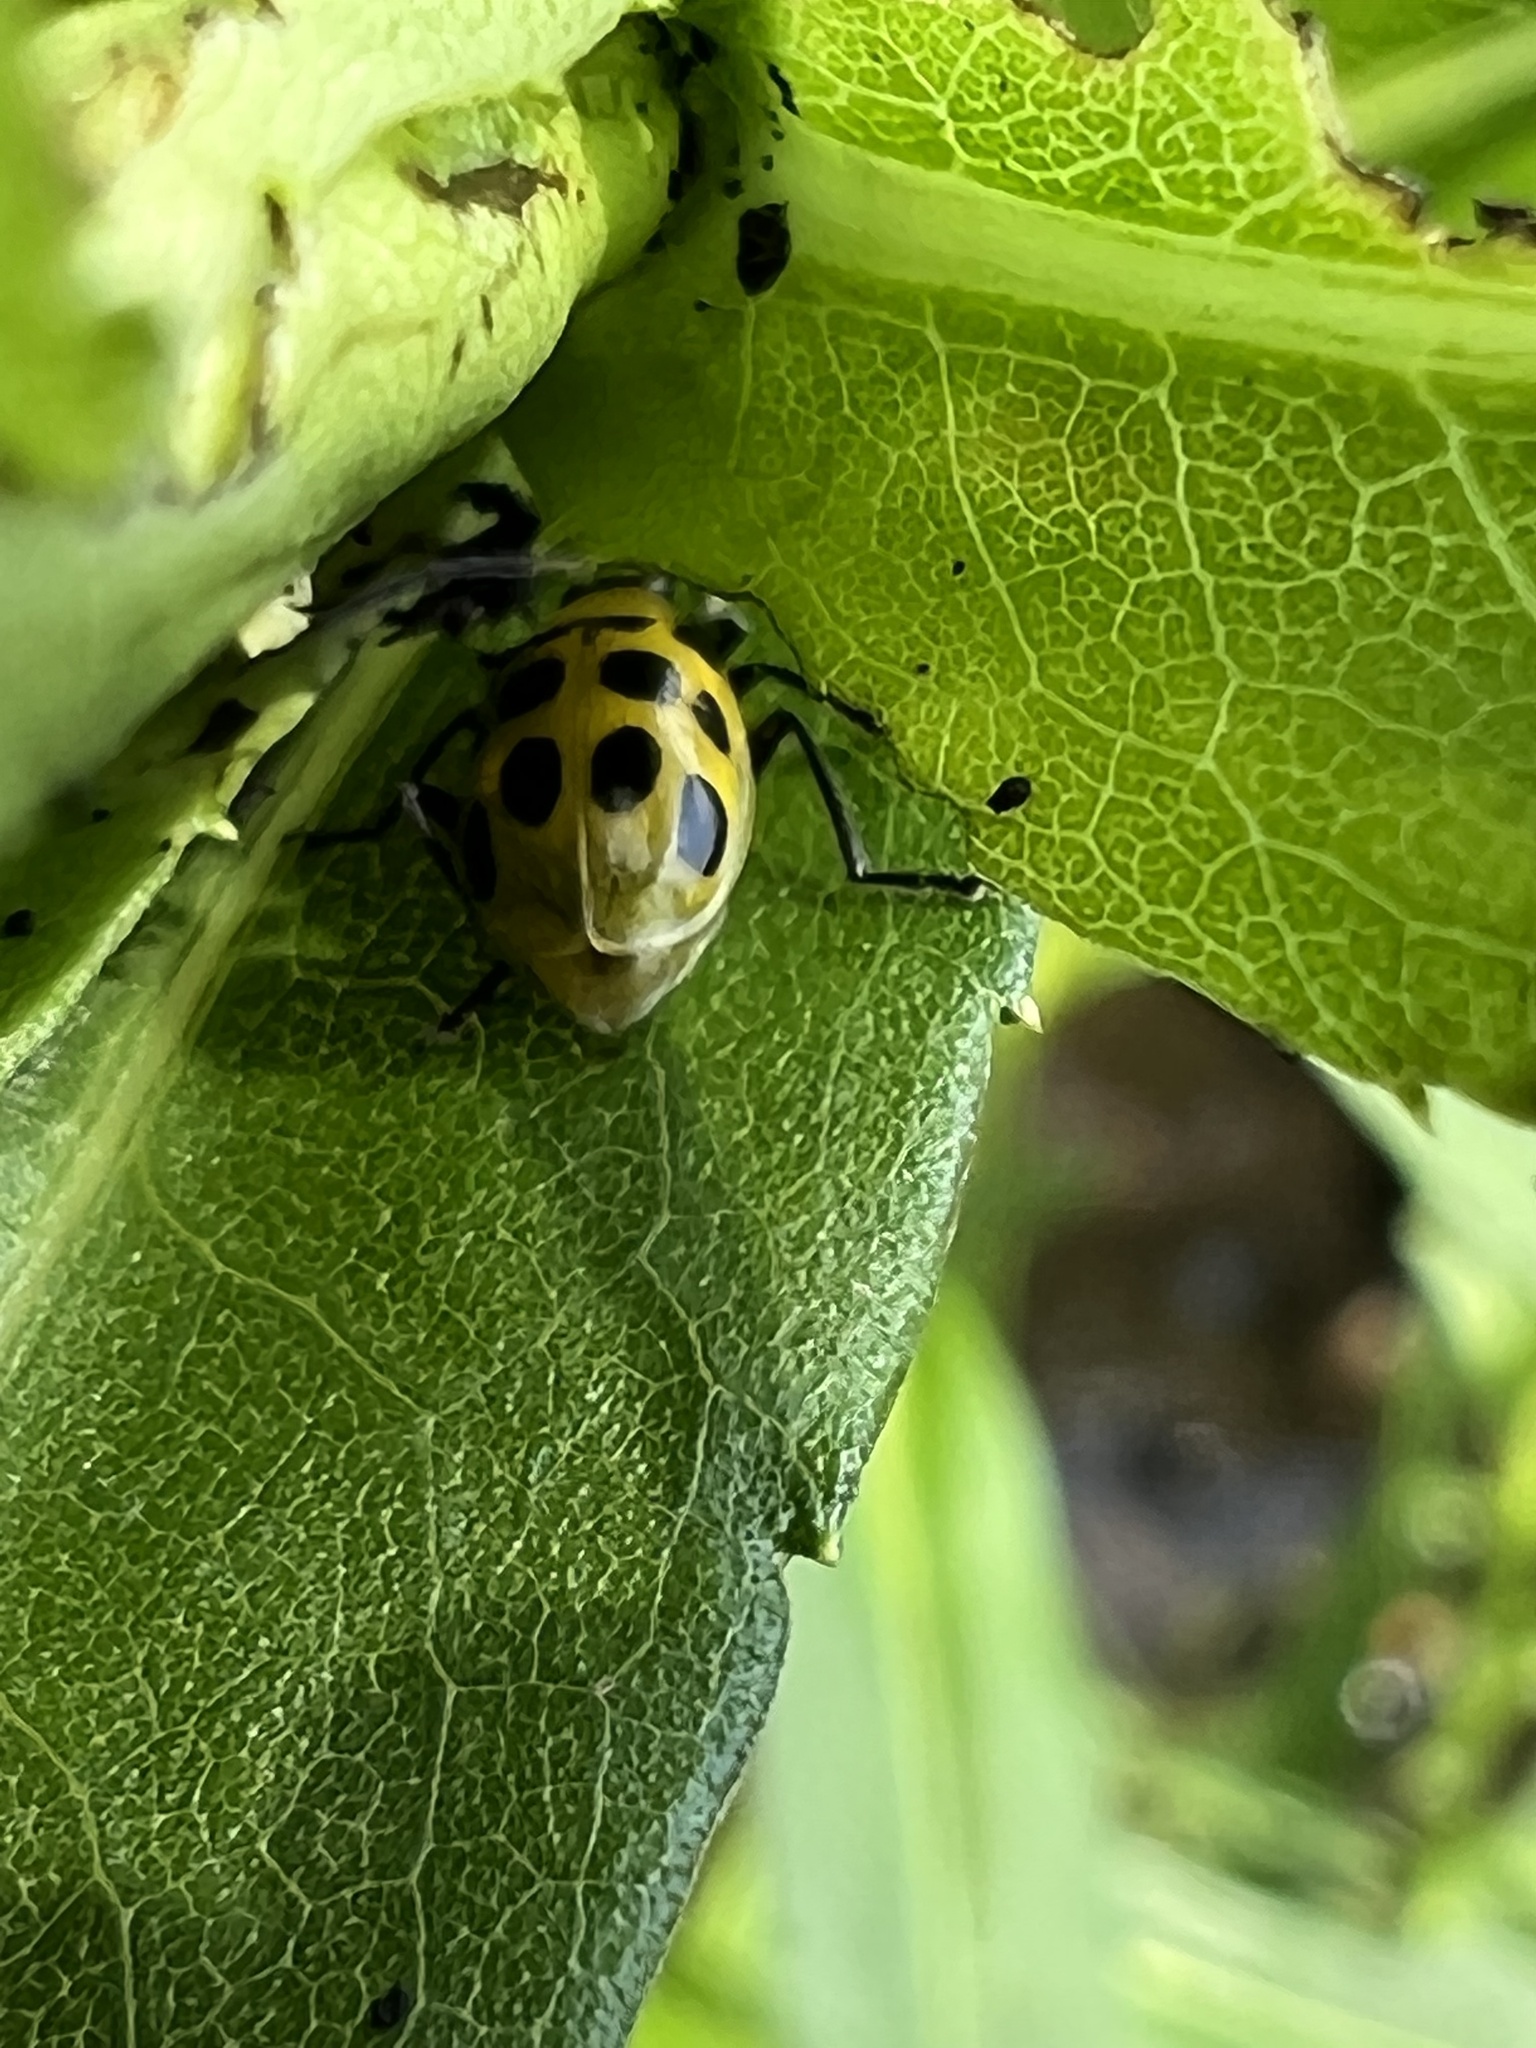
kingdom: Animalia
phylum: Arthropoda
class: Insecta
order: Coleoptera
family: Chrysomelidae
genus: Diabrotica
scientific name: Diabrotica undecimpunctata
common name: Spotted cucumber beetle
